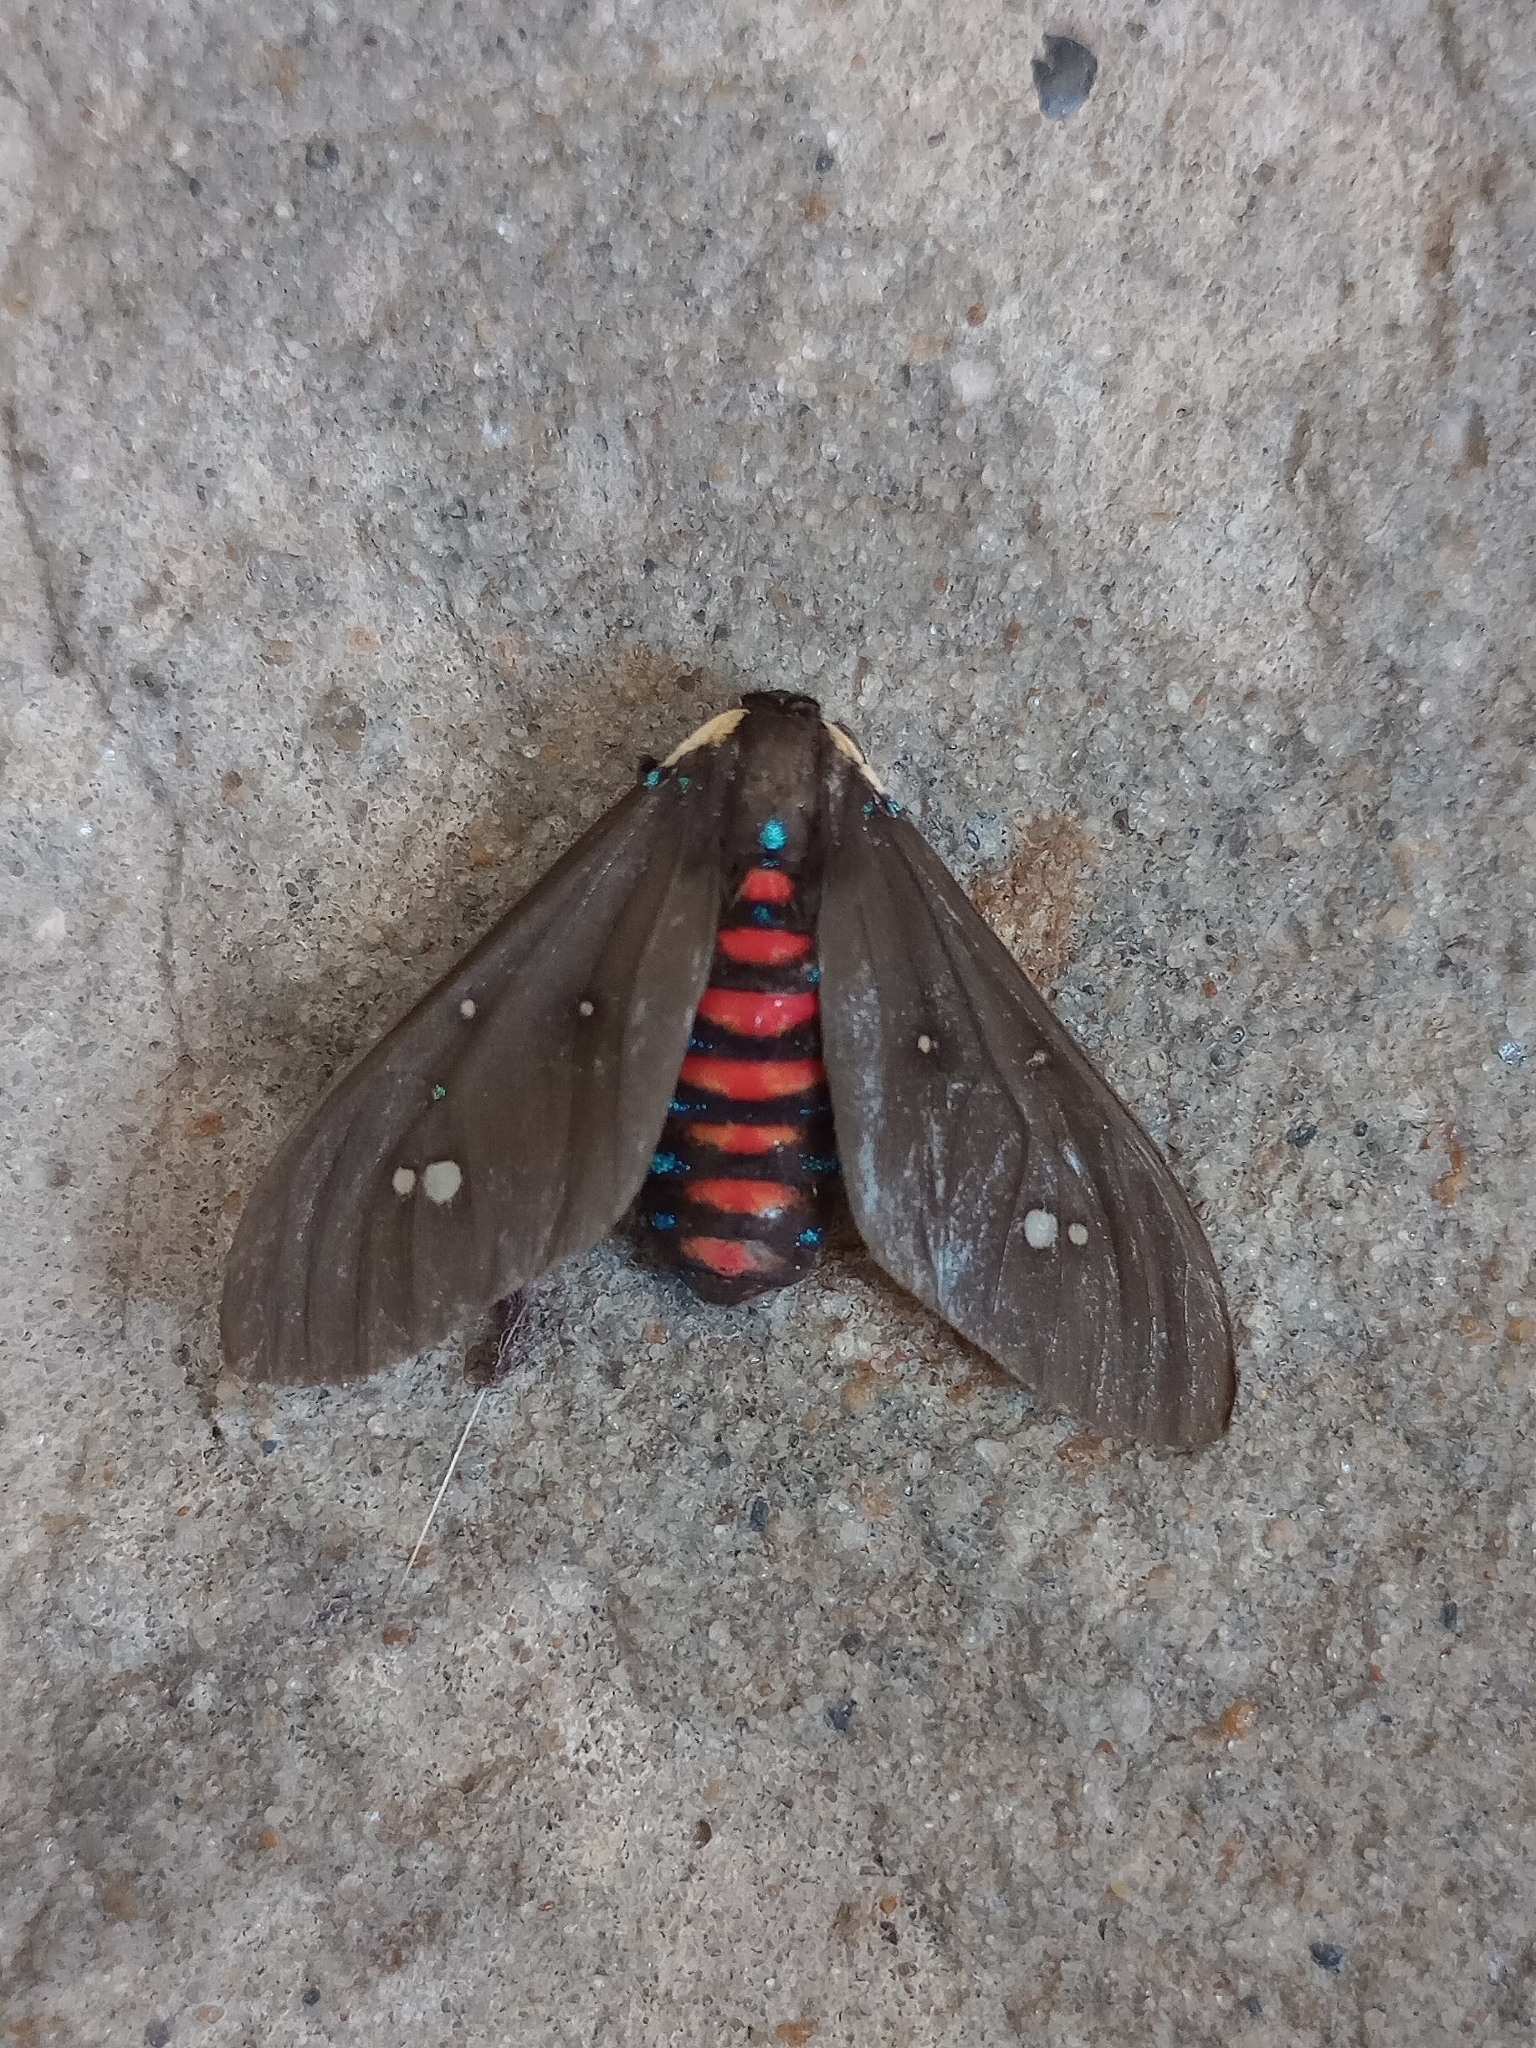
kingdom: Animalia
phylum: Arthropoda
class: Insecta
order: Lepidoptera
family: Erebidae
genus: Euclera
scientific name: Euclera
